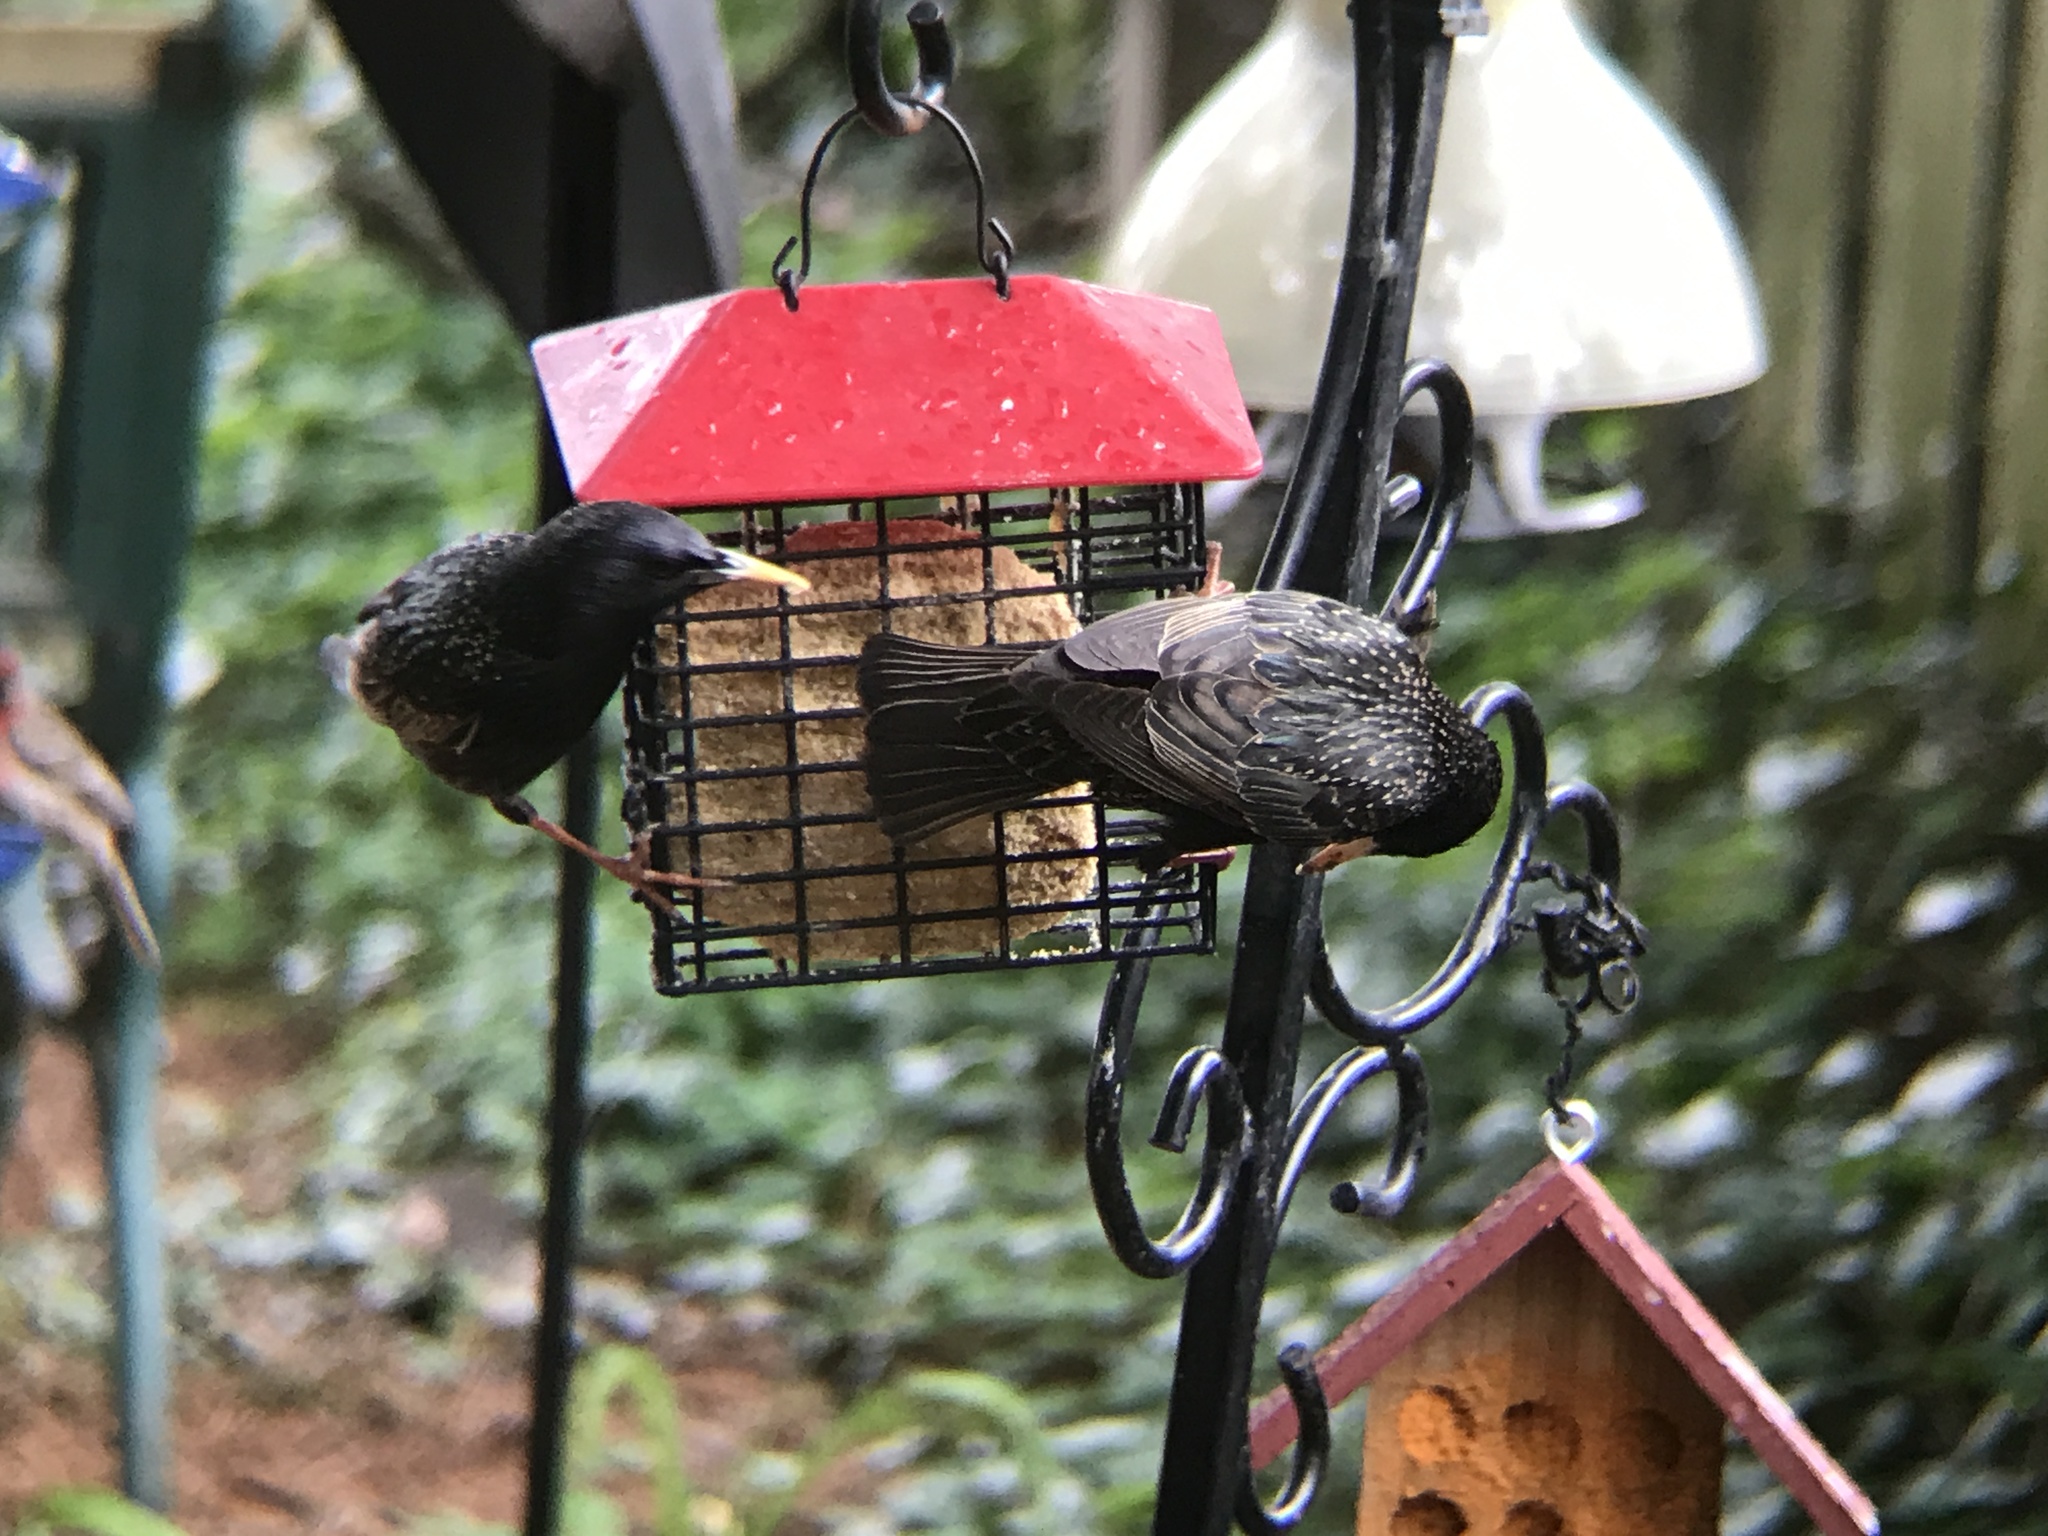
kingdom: Animalia
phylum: Chordata
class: Aves
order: Passeriformes
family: Sturnidae
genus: Sturnus
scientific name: Sturnus vulgaris
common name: Common starling
